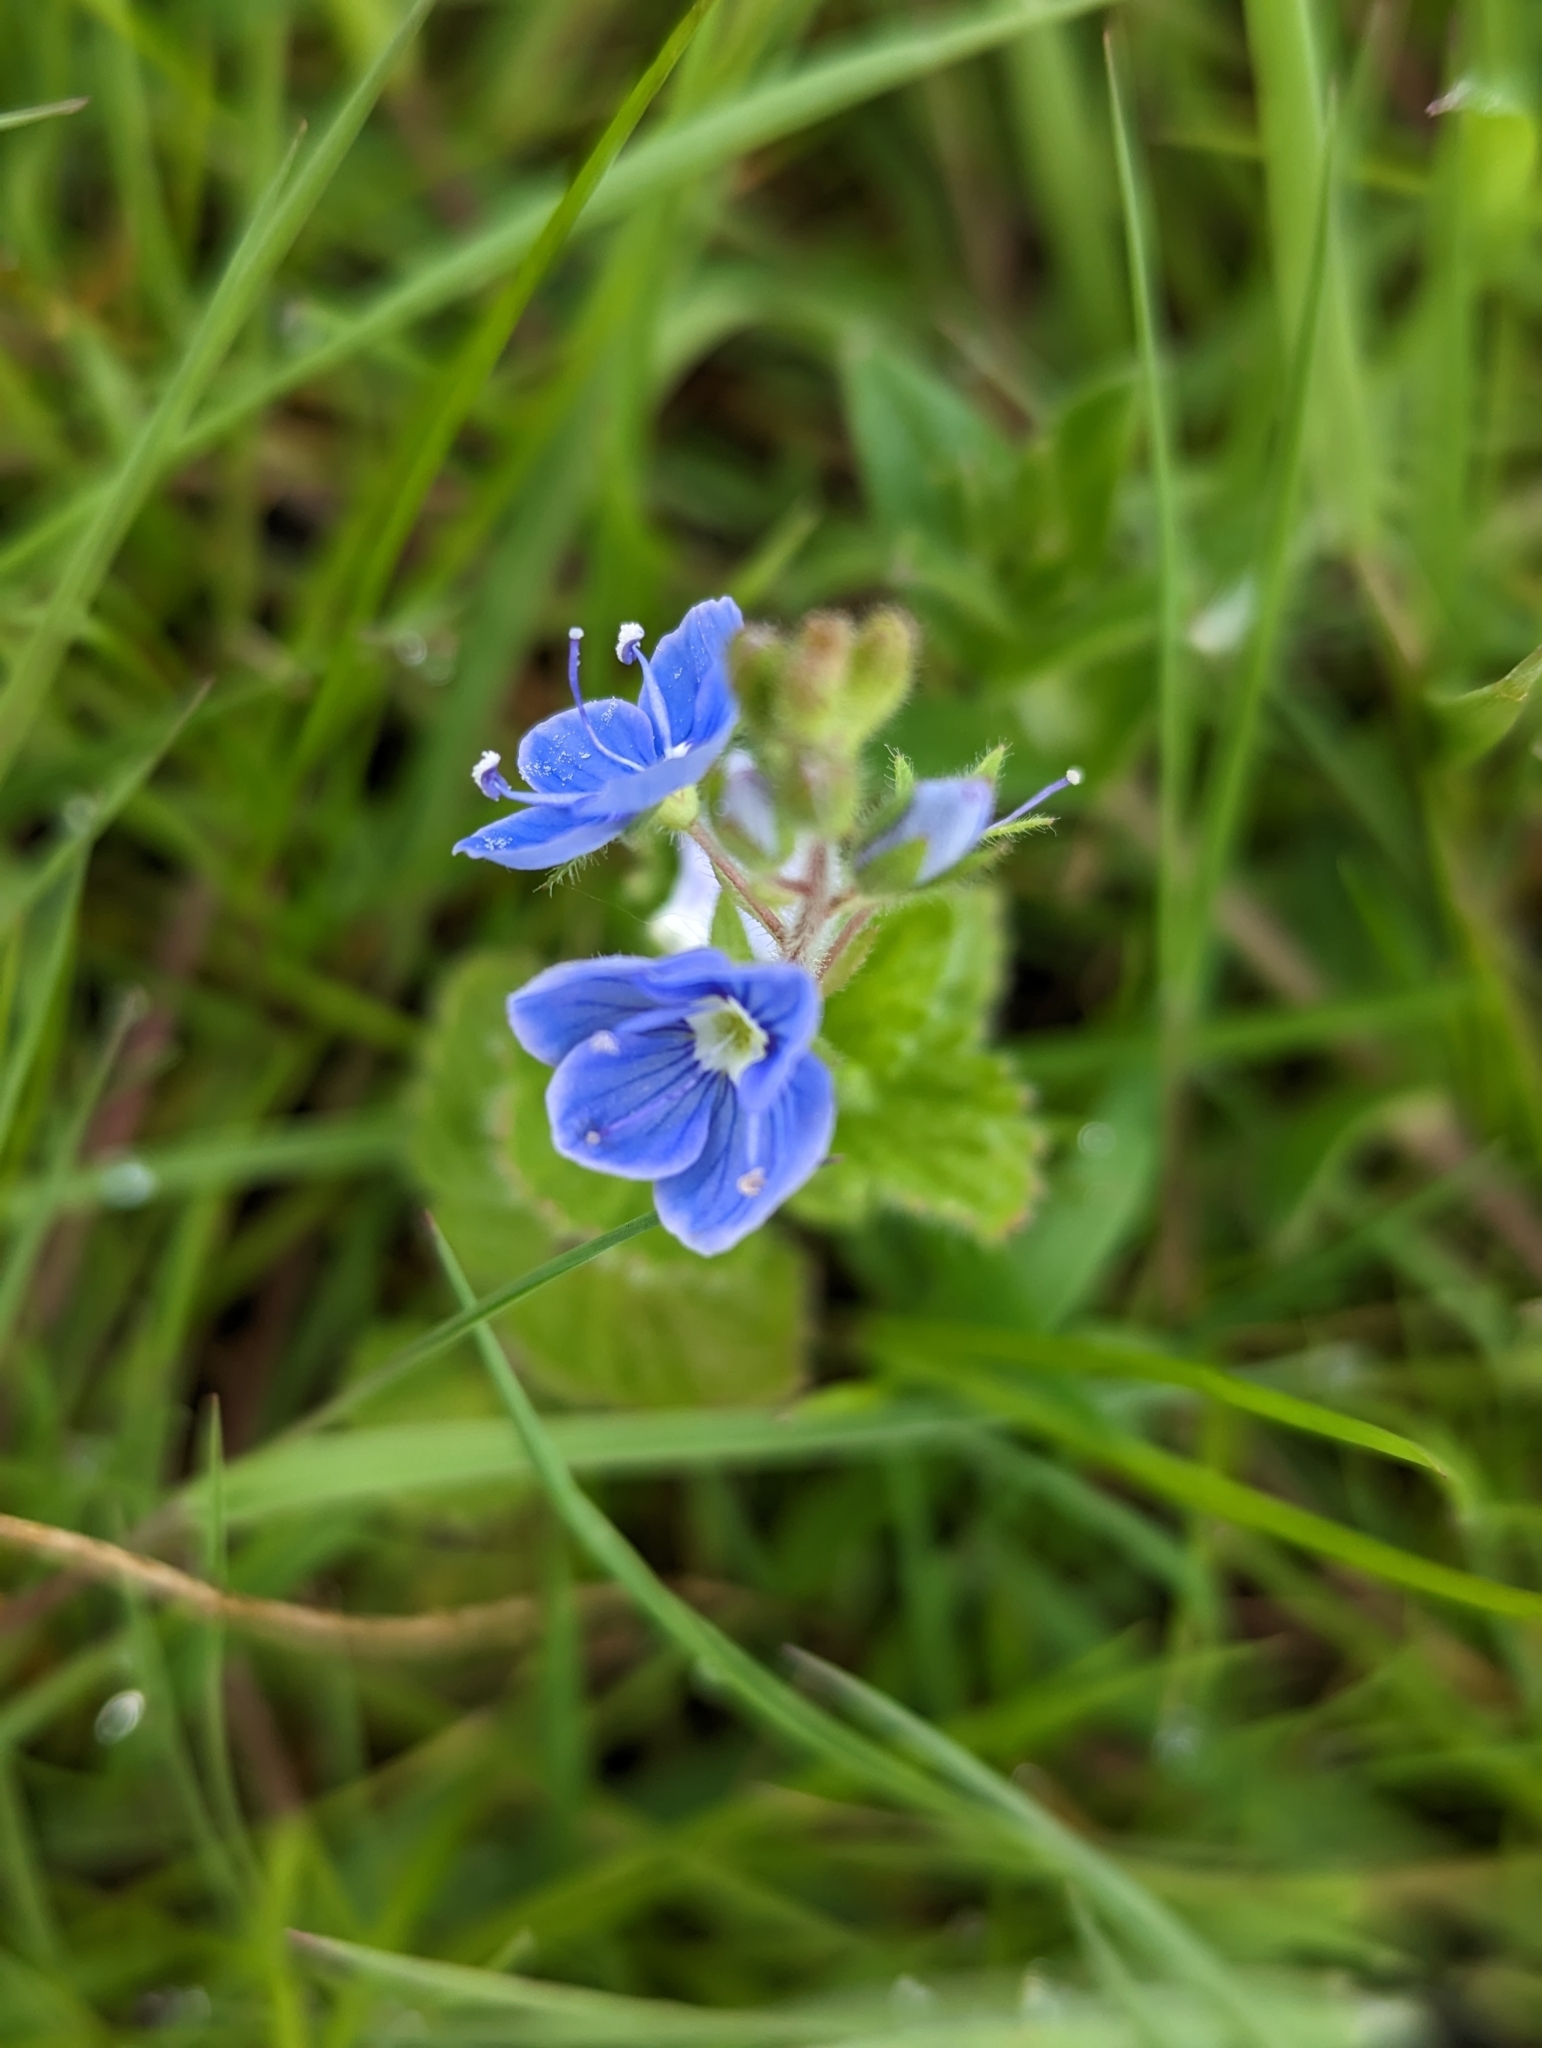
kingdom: Plantae
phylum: Tracheophyta
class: Magnoliopsida
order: Lamiales
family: Plantaginaceae
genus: Veronica
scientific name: Veronica chamaedrys
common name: Germander speedwell
